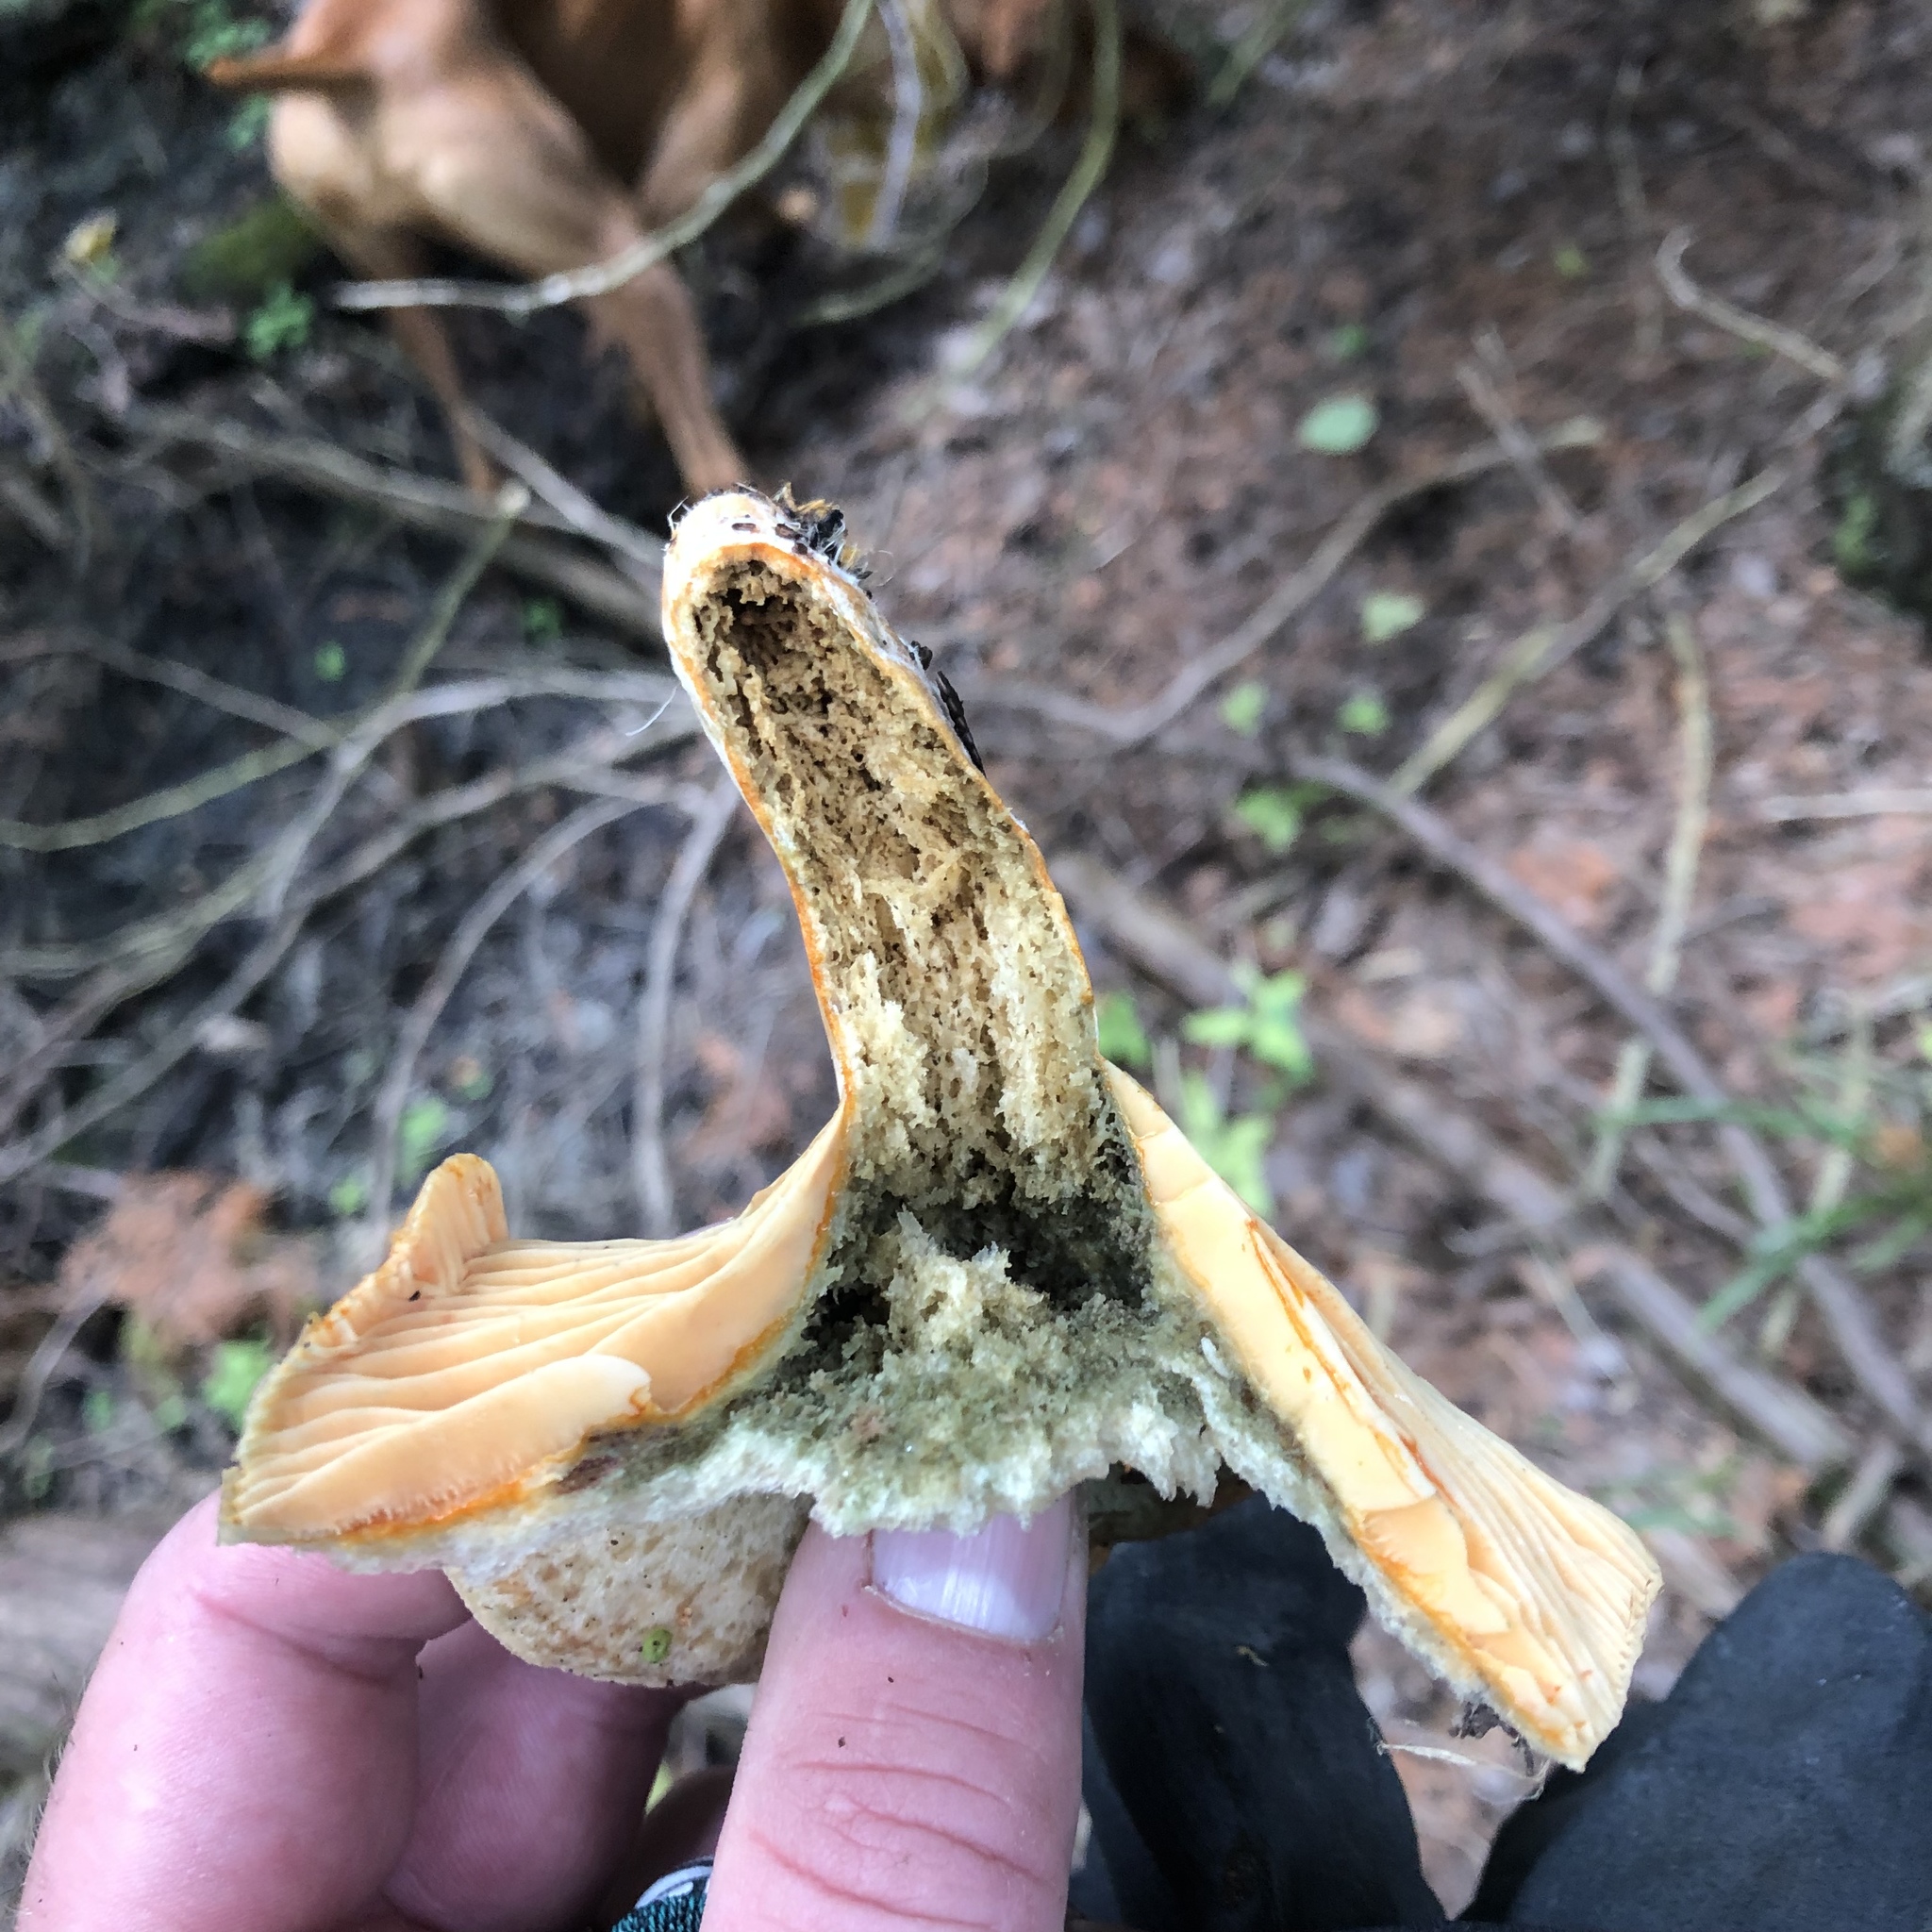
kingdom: Fungi
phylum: Basidiomycota
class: Agaricomycetes
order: Russulales
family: Russulaceae
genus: Lactarius
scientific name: Lactarius deterrimus
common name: False saffron milkcap
